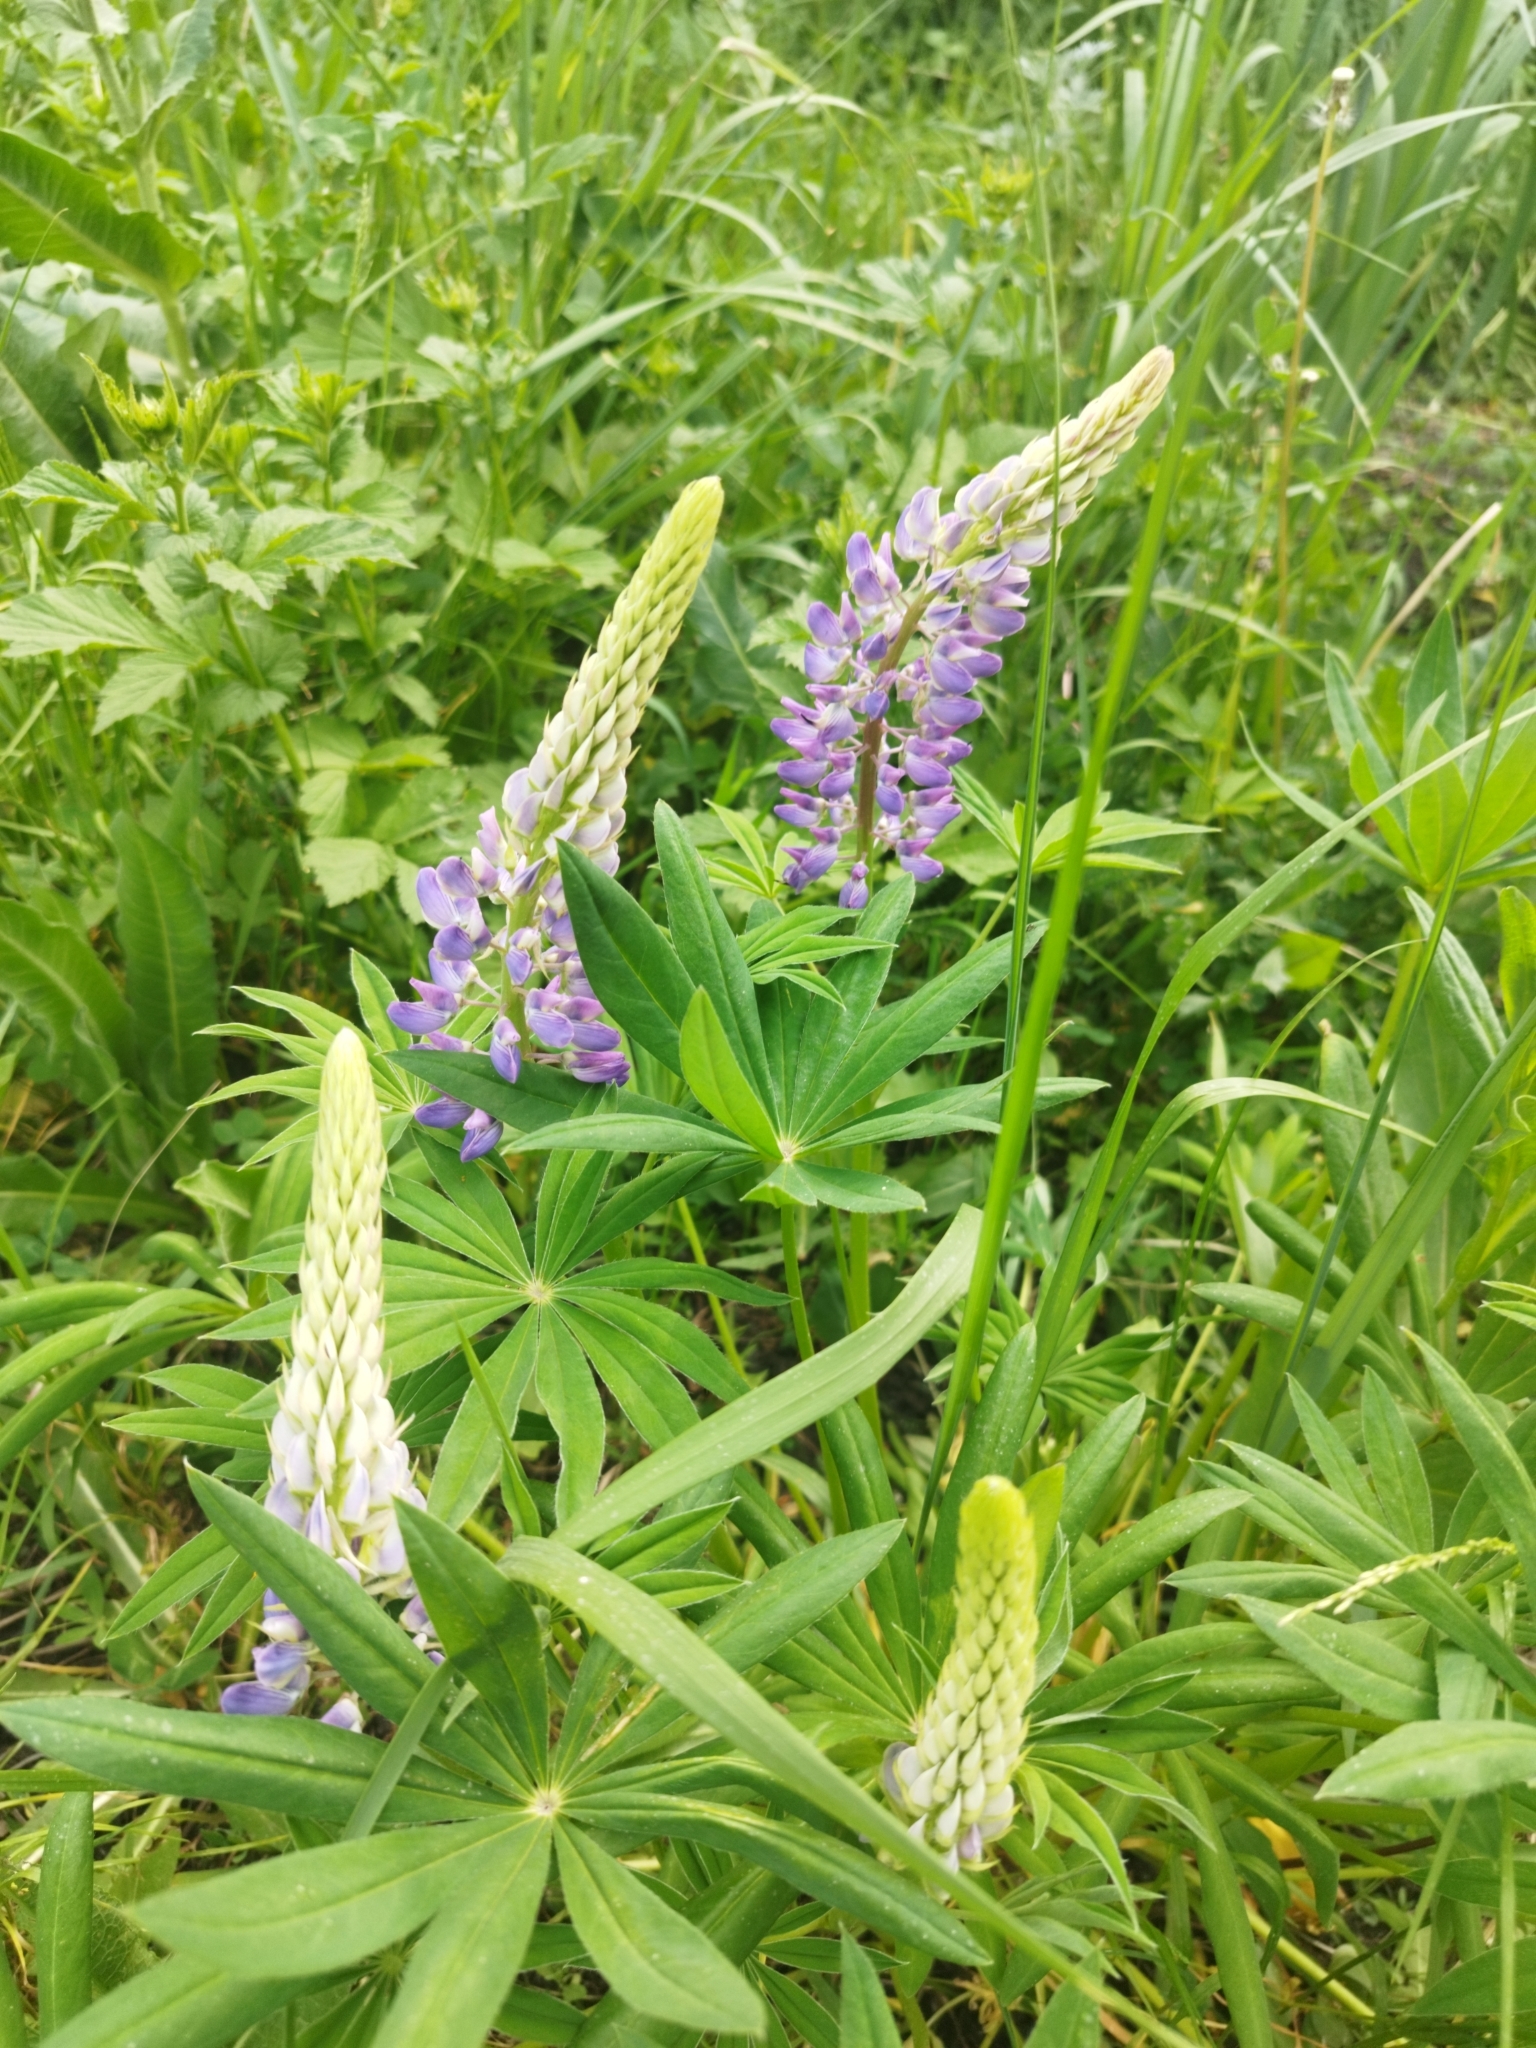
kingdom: Plantae
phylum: Tracheophyta
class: Magnoliopsida
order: Fabales
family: Fabaceae
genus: Lupinus
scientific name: Lupinus polyphyllus
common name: Garden lupin
